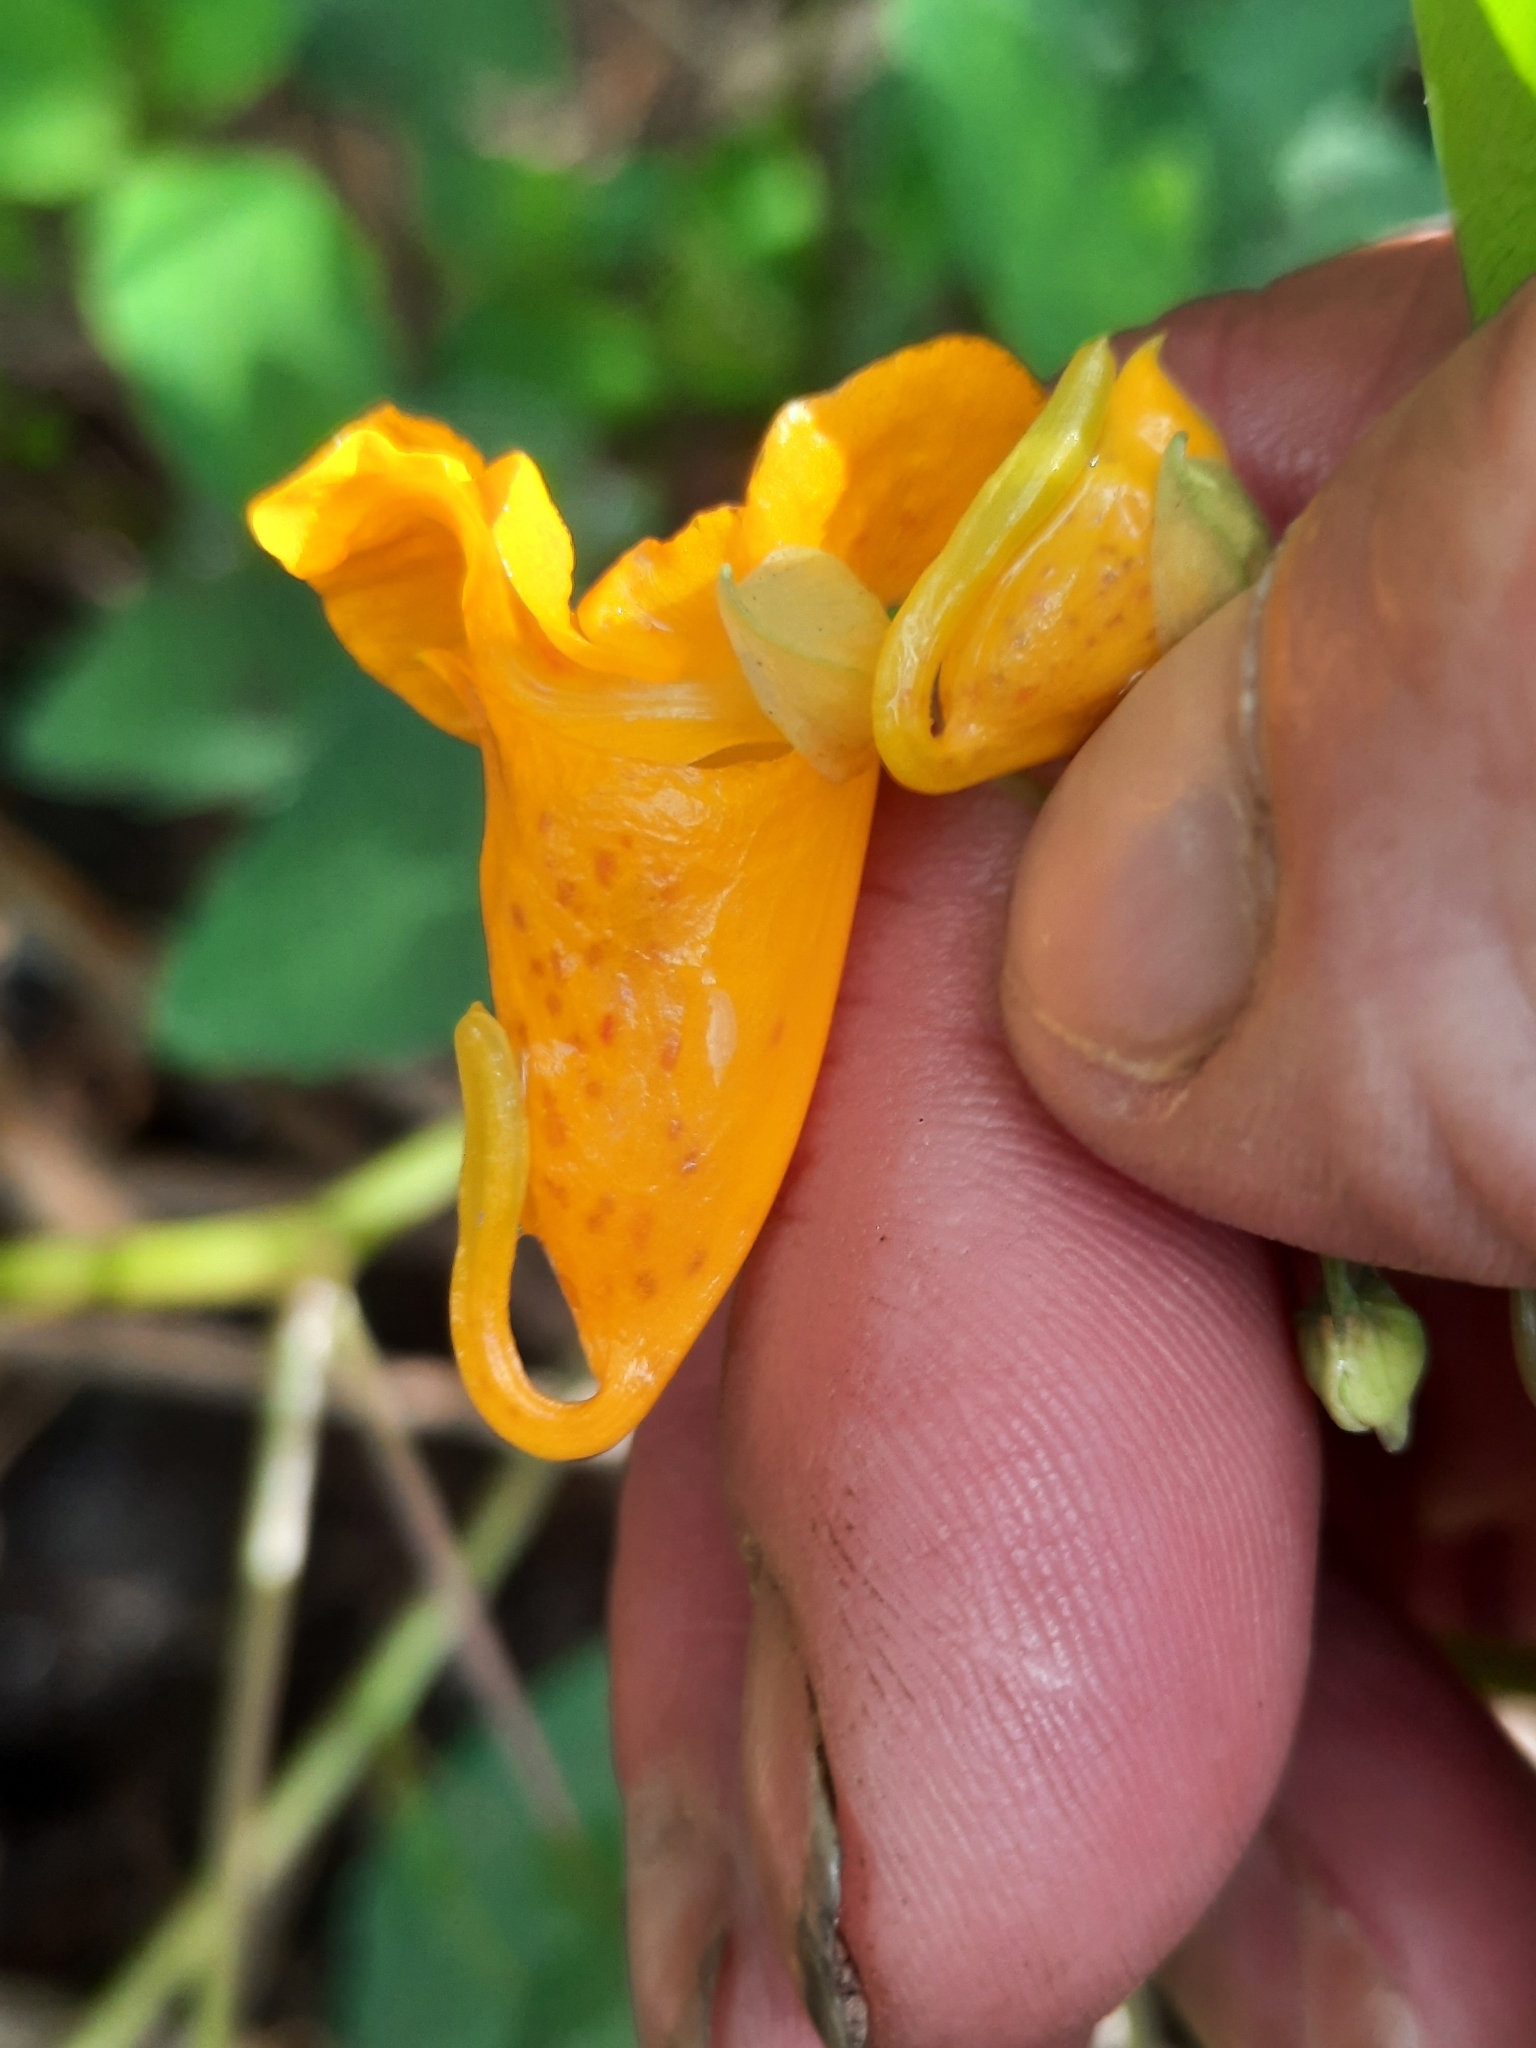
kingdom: Plantae
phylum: Tracheophyta
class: Magnoliopsida
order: Ericales
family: Balsaminaceae
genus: Impatiens
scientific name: Impatiens capensis
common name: Orange balsam
